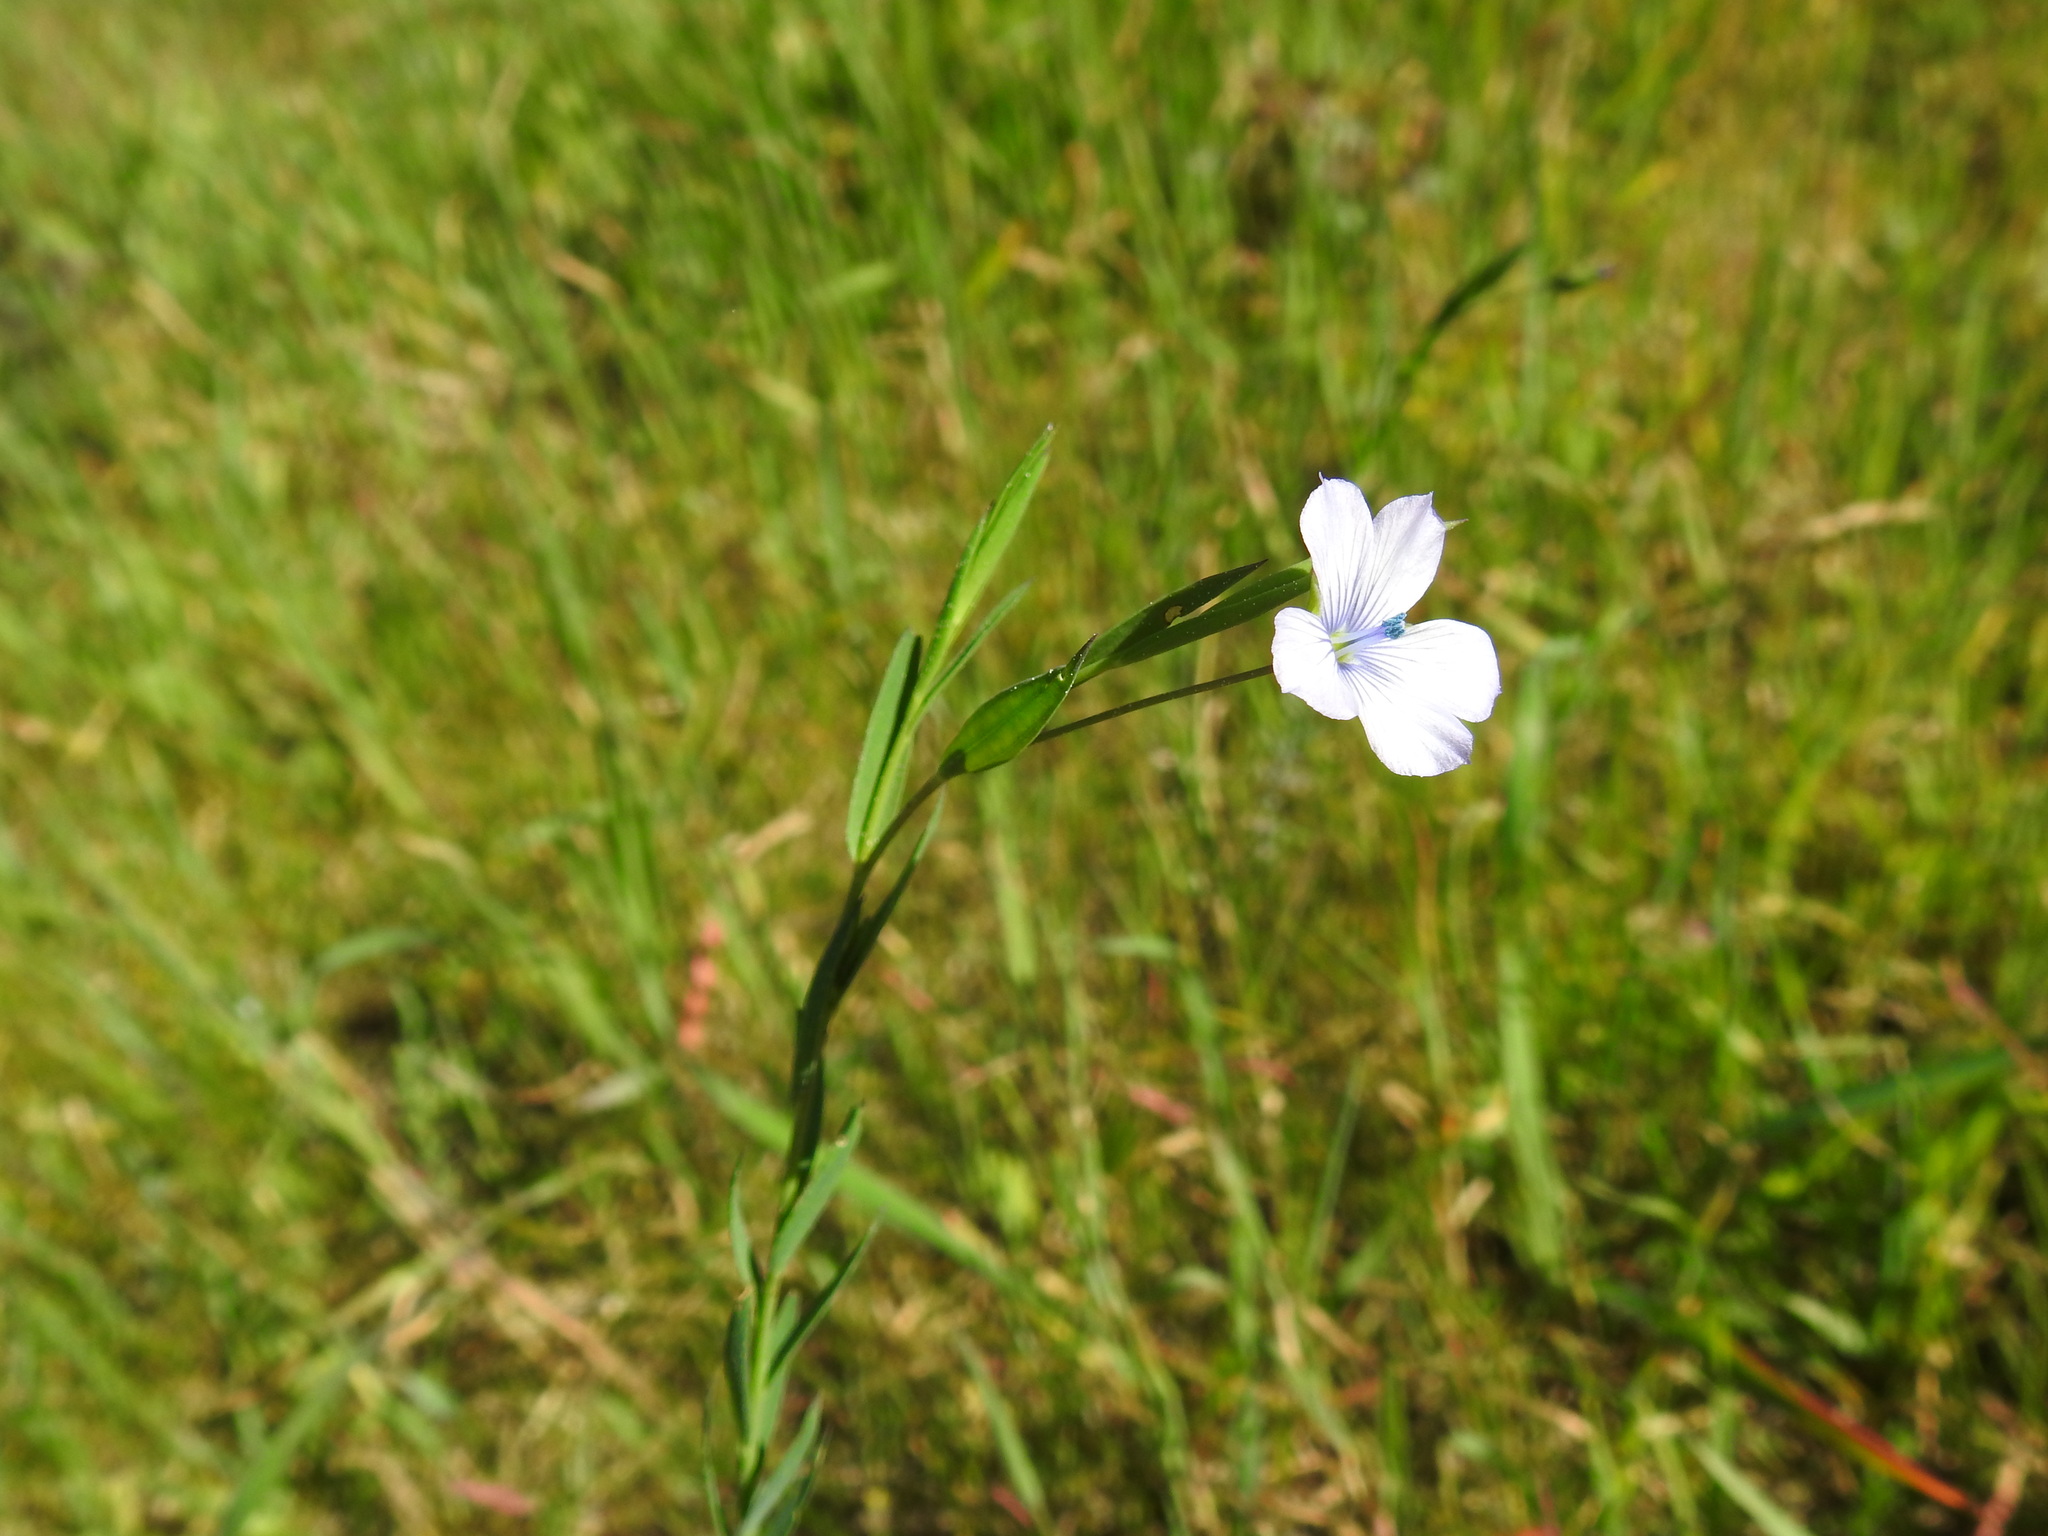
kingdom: Plantae
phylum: Tracheophyta
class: Magnoliopsida
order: Malpighiales
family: Linaceae
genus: Linum
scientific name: Linum bienne
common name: Pale flax
